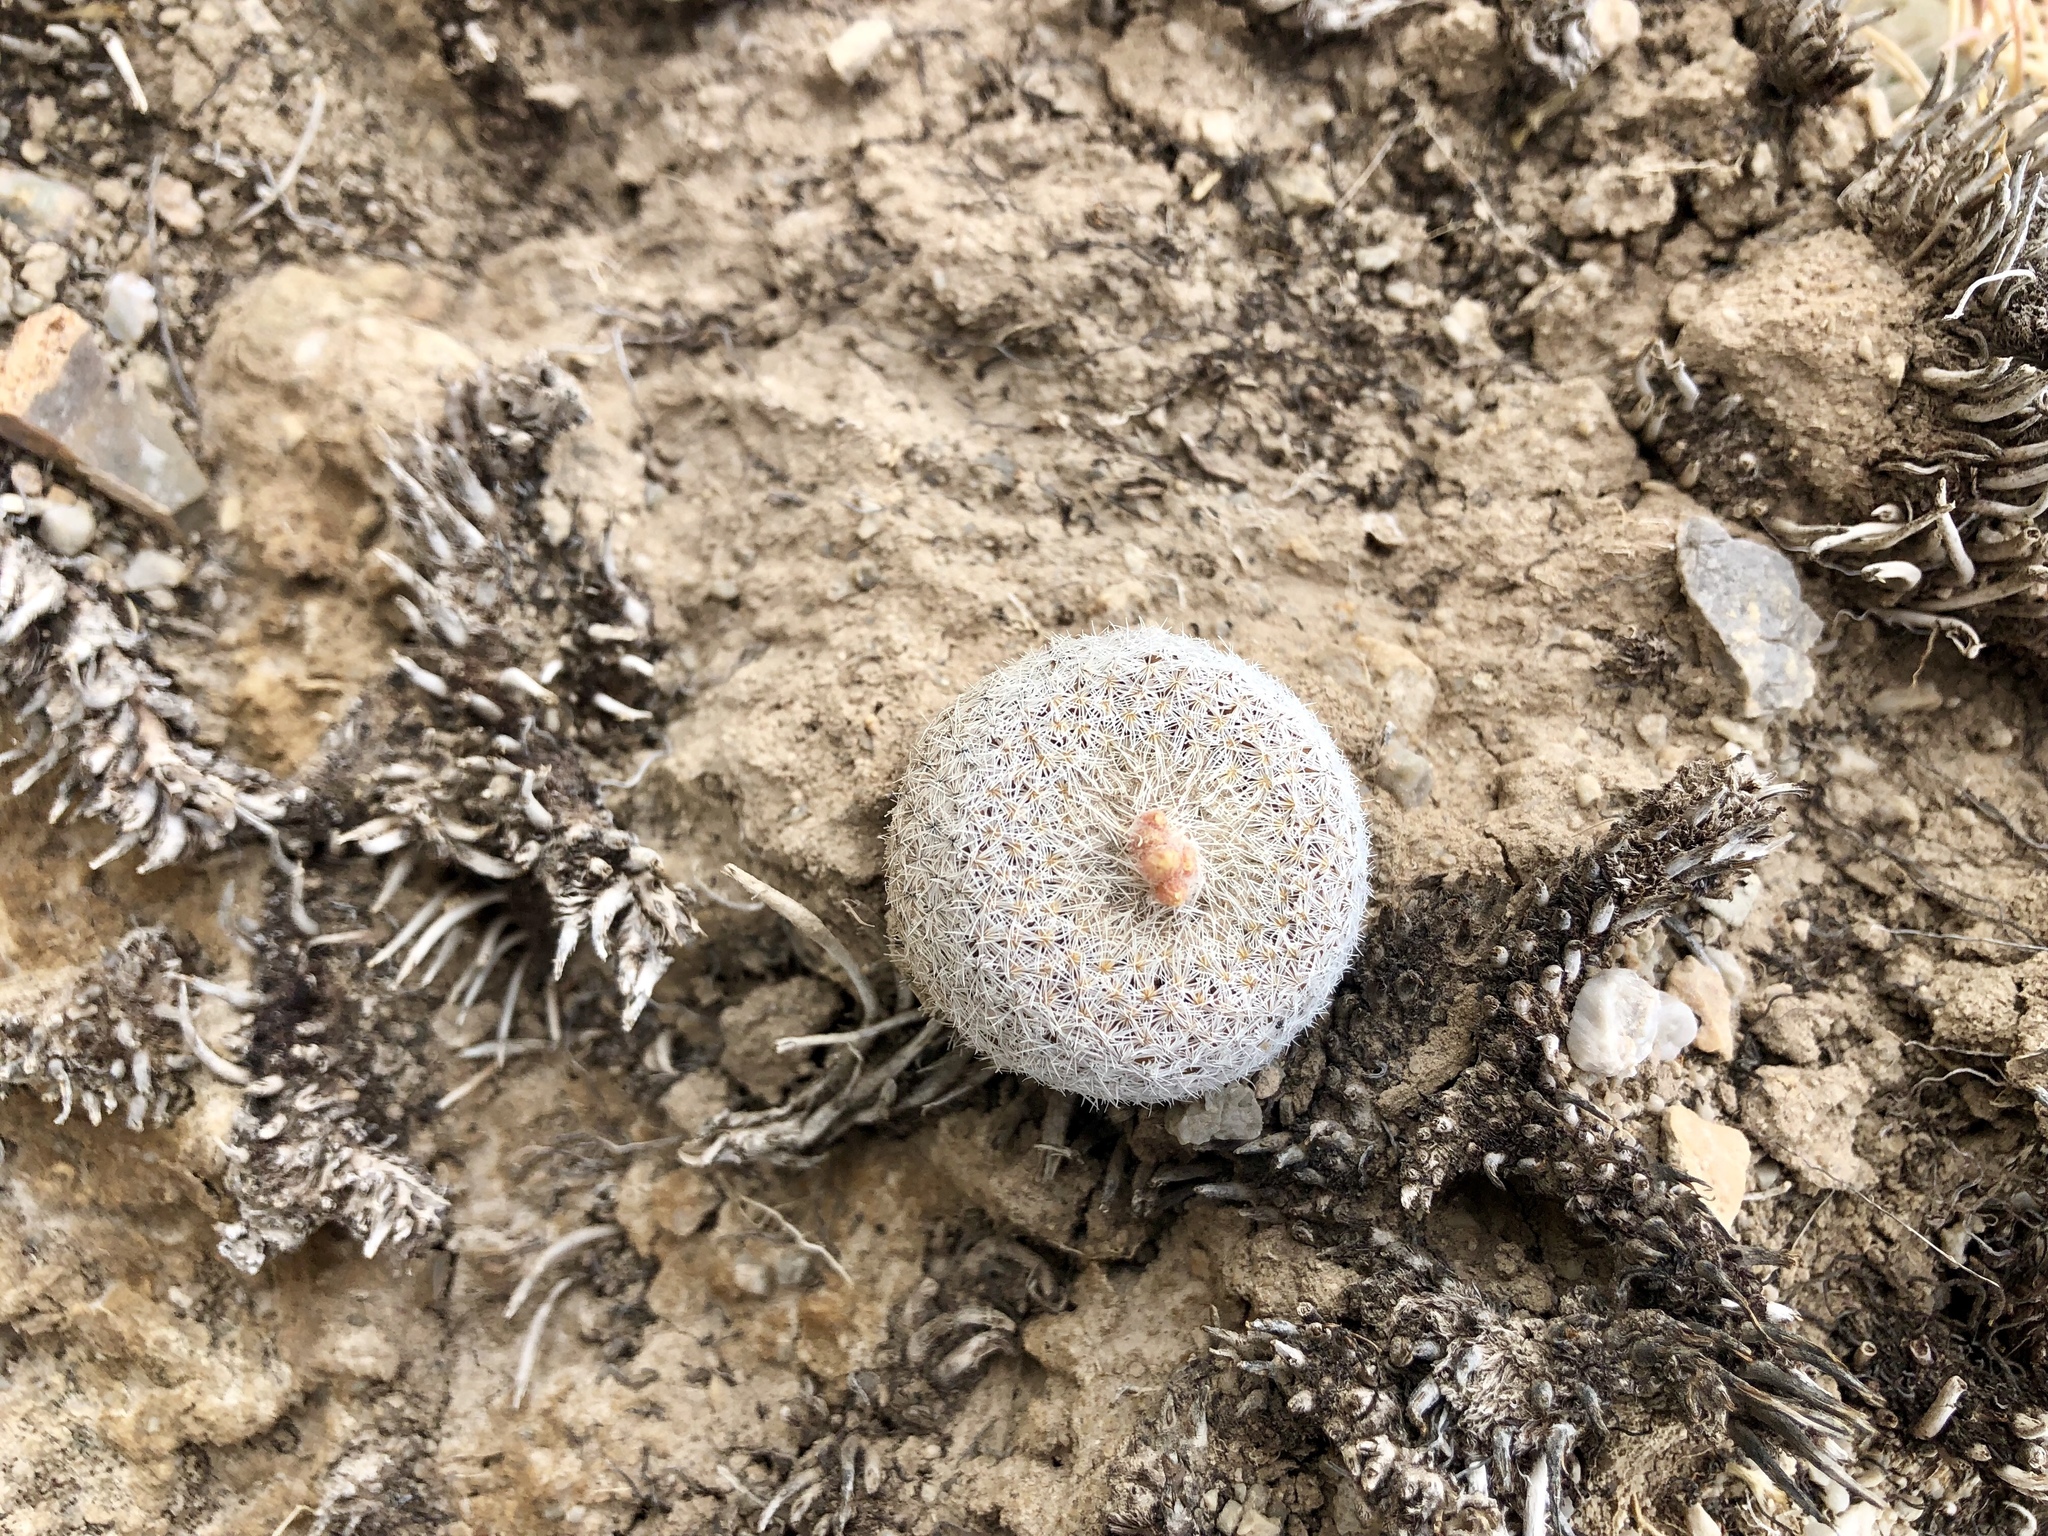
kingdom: Plantae
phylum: Tracheophyta
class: Magnoliopsida
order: Caryophyllales
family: Cactaceae
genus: Epithelantha
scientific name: Epithelantha micromeris
